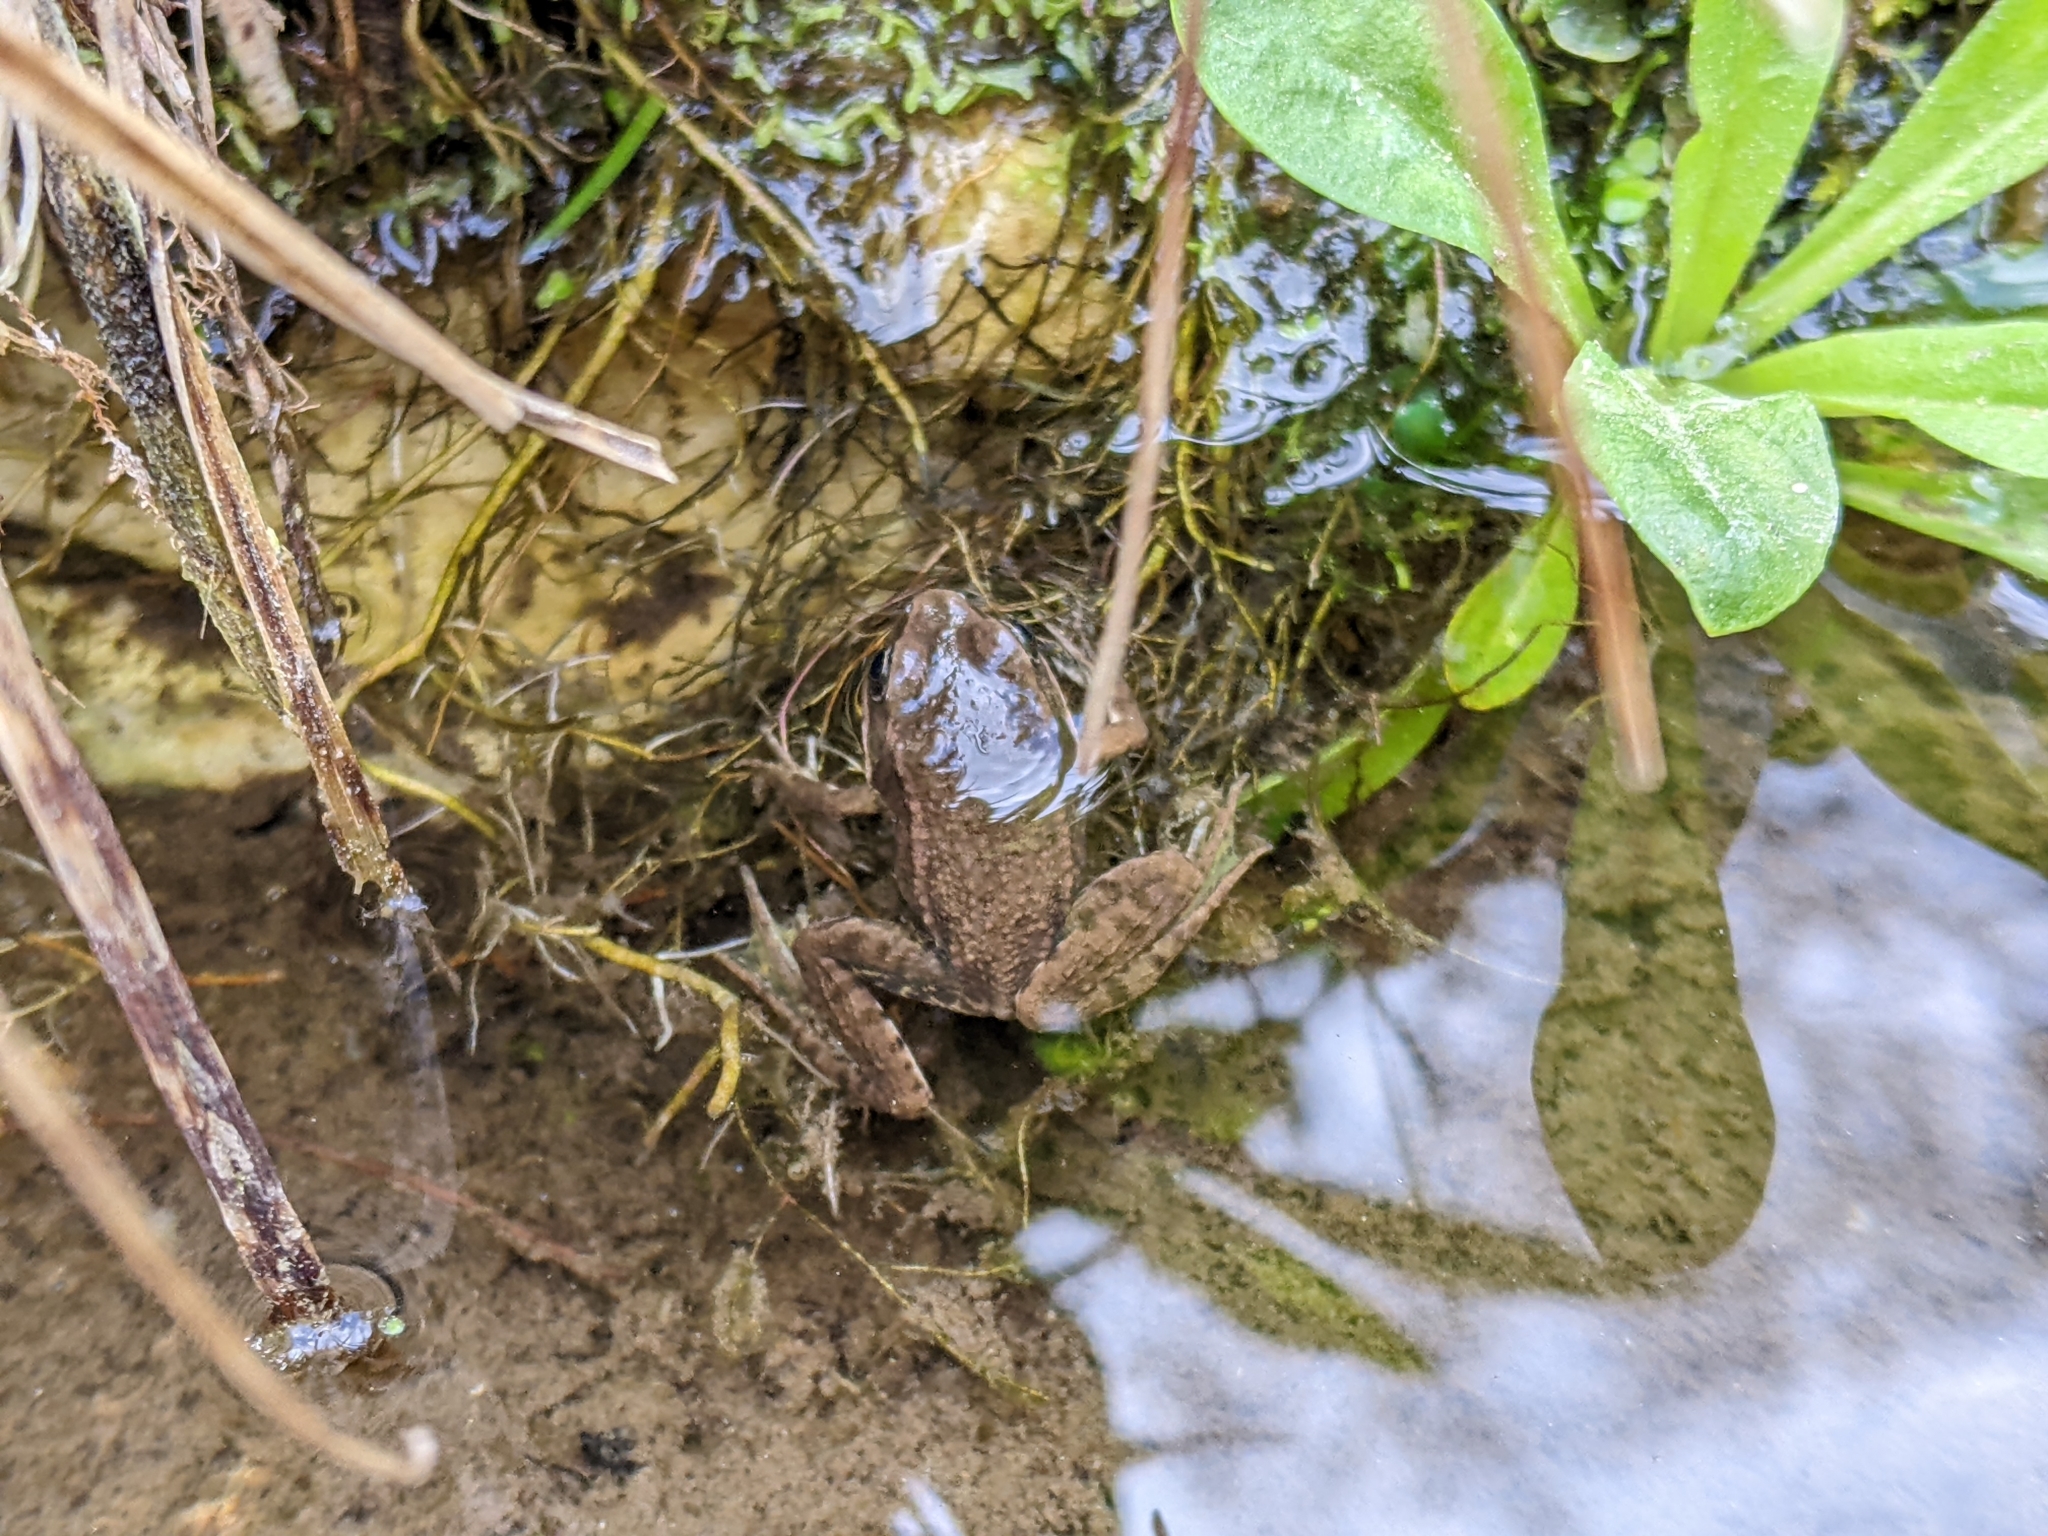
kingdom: Animalia
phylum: Chordata
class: Amphibia
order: Anura
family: Ranidae
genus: Pelophylax
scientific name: Pelophylax
